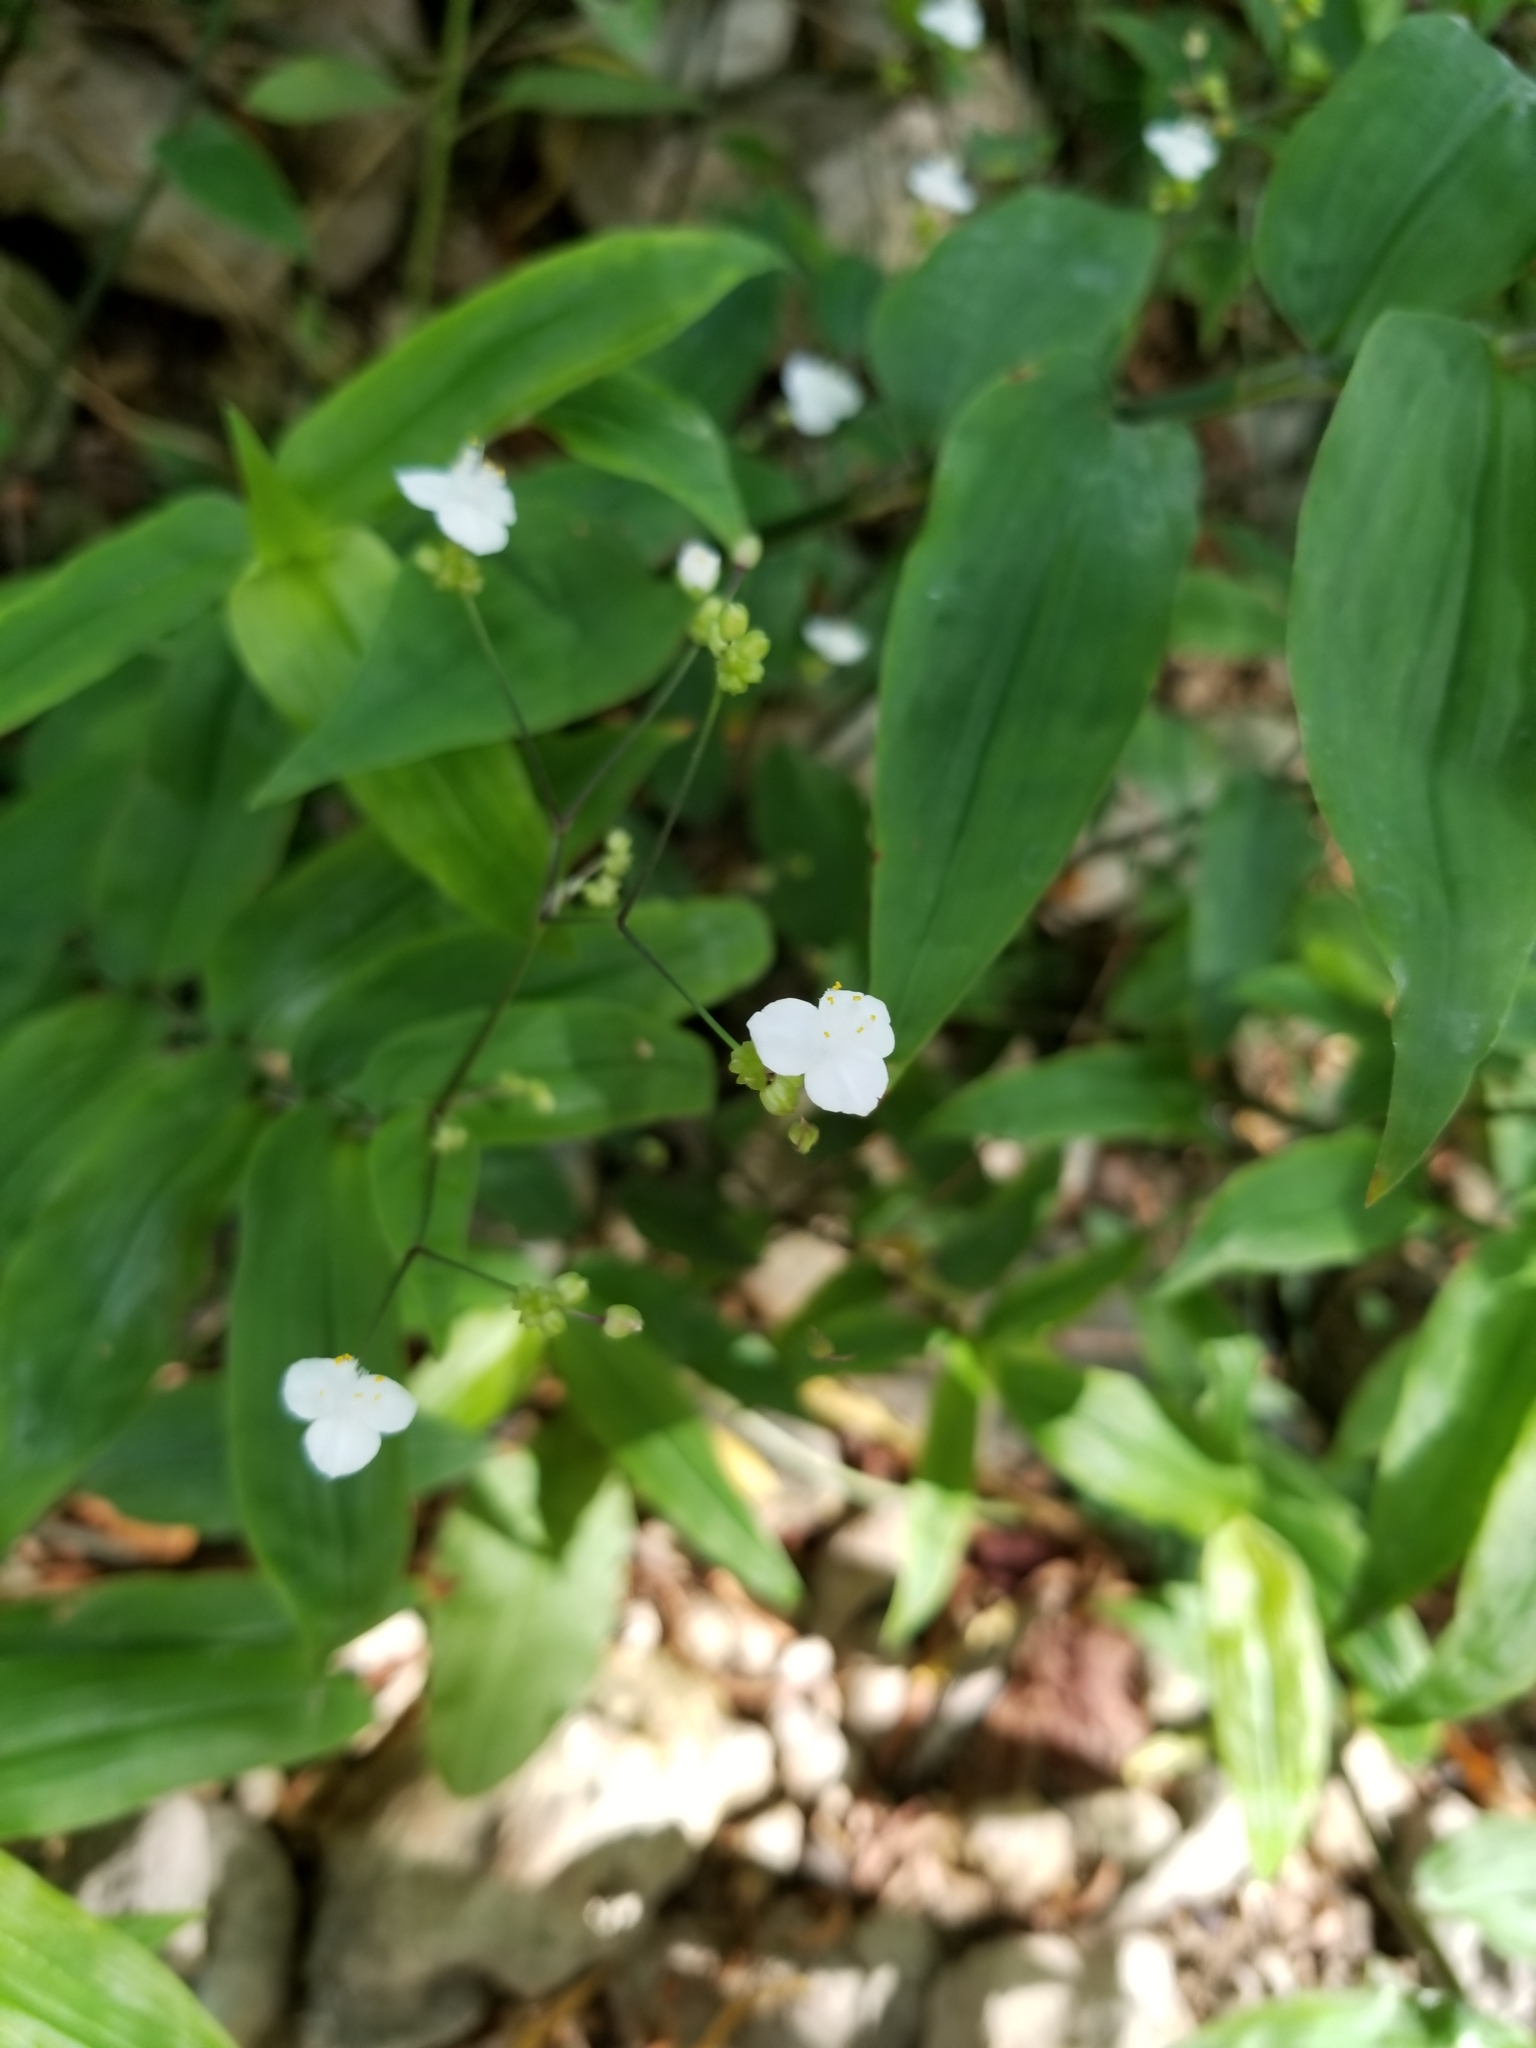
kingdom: Plantae
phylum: Tracheophyta
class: Liliopsida
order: Commelinales
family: Commelinaceae
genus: Gibasis
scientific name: Gibasis pellucida
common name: Dotted bridalveil
